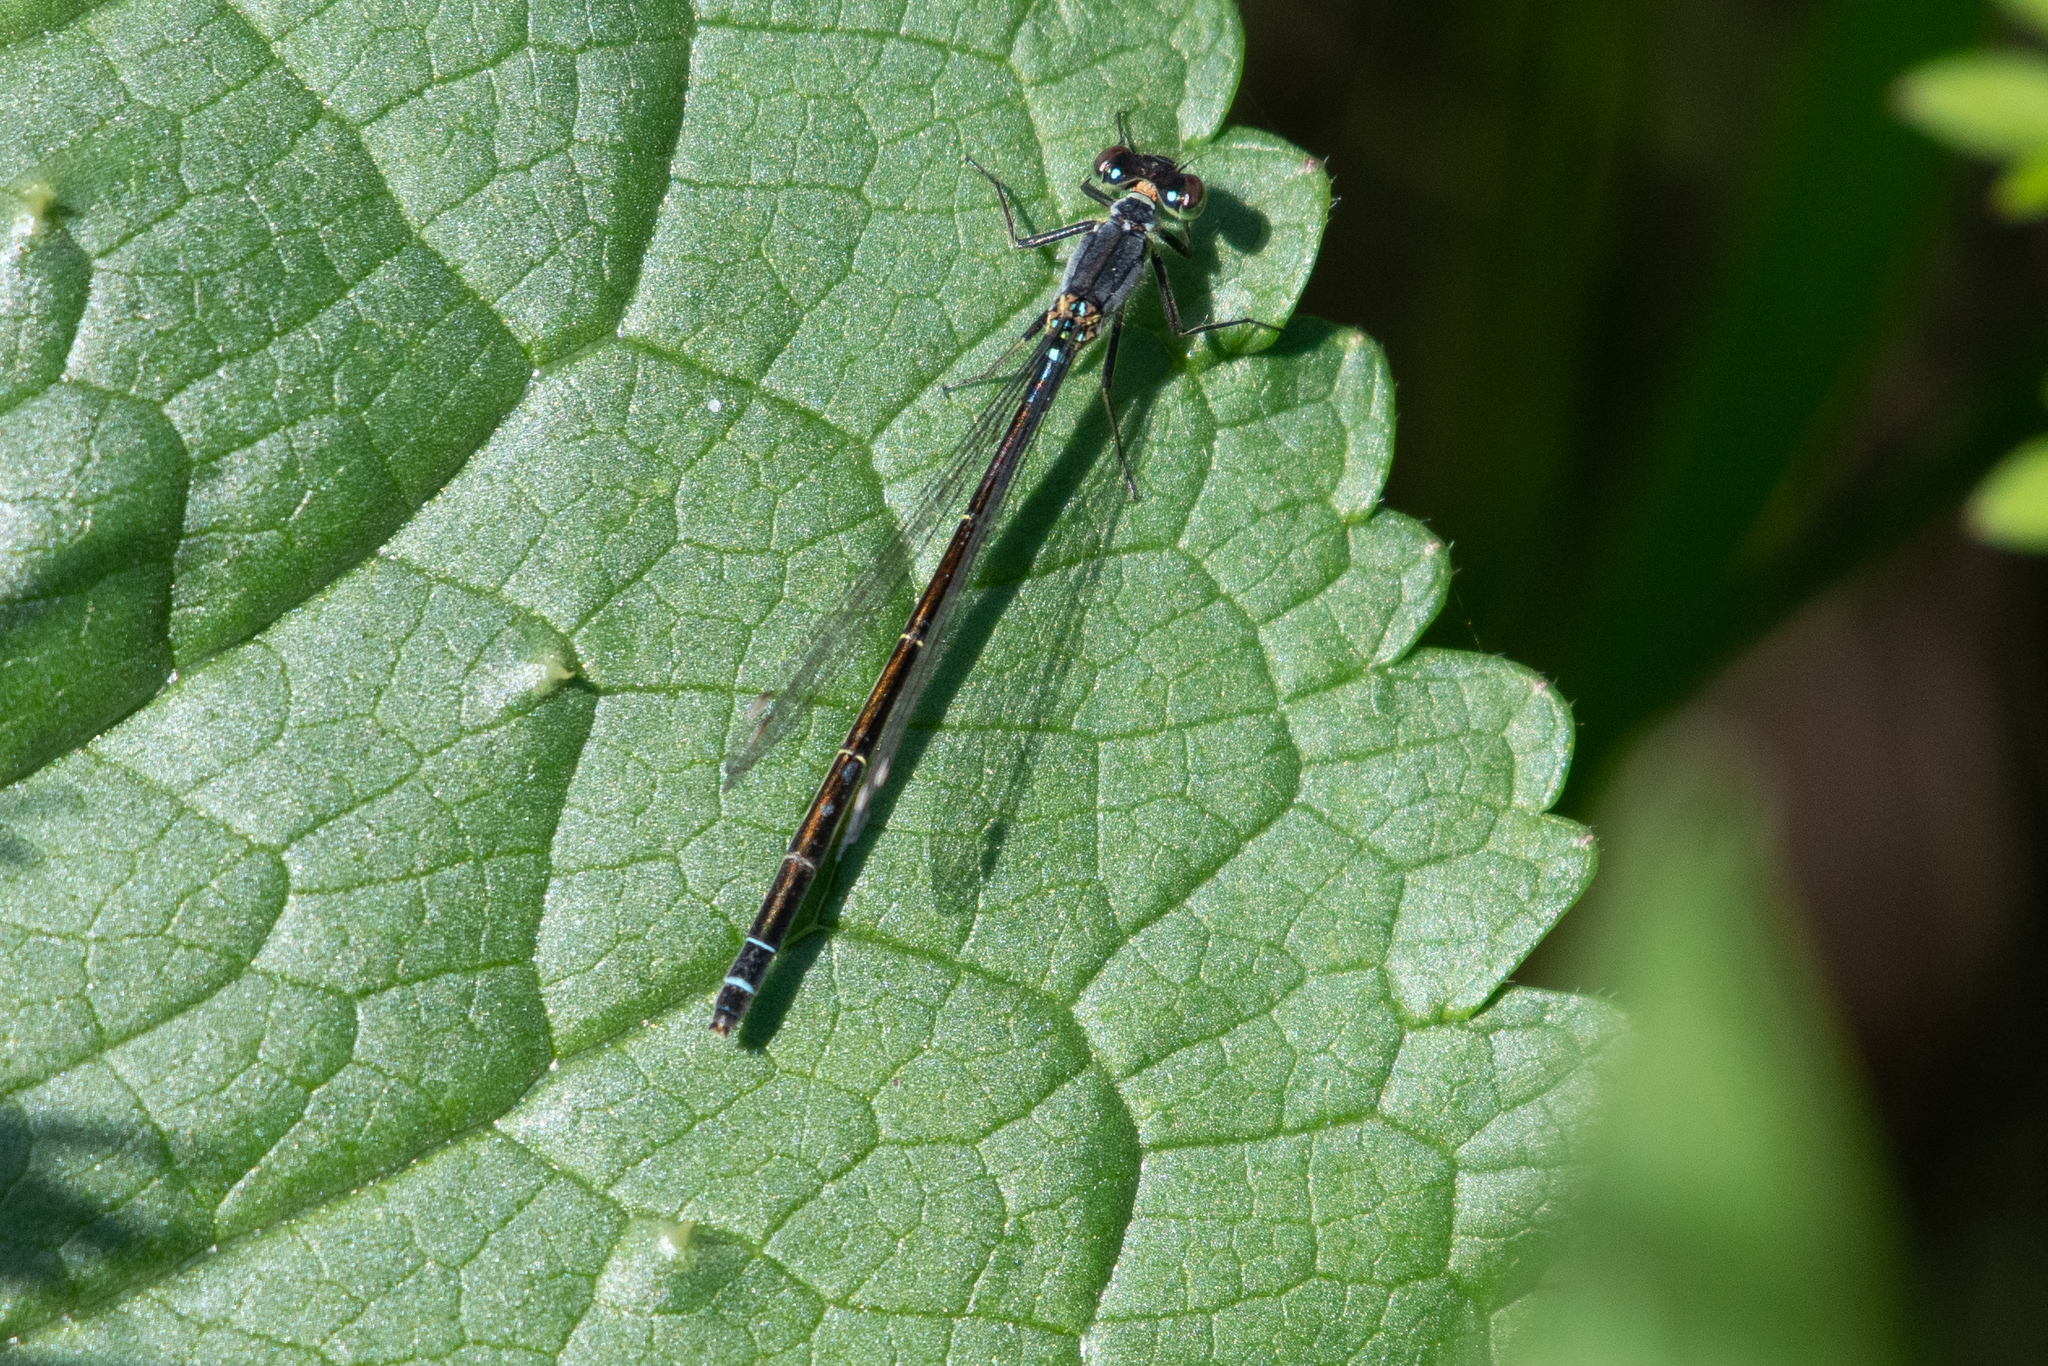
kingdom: Animalia
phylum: Arthropoda
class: Insecta
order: Odonata
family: Coenagrionidae
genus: Ischnura
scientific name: Ischnura cervula
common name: Pacific forktail
